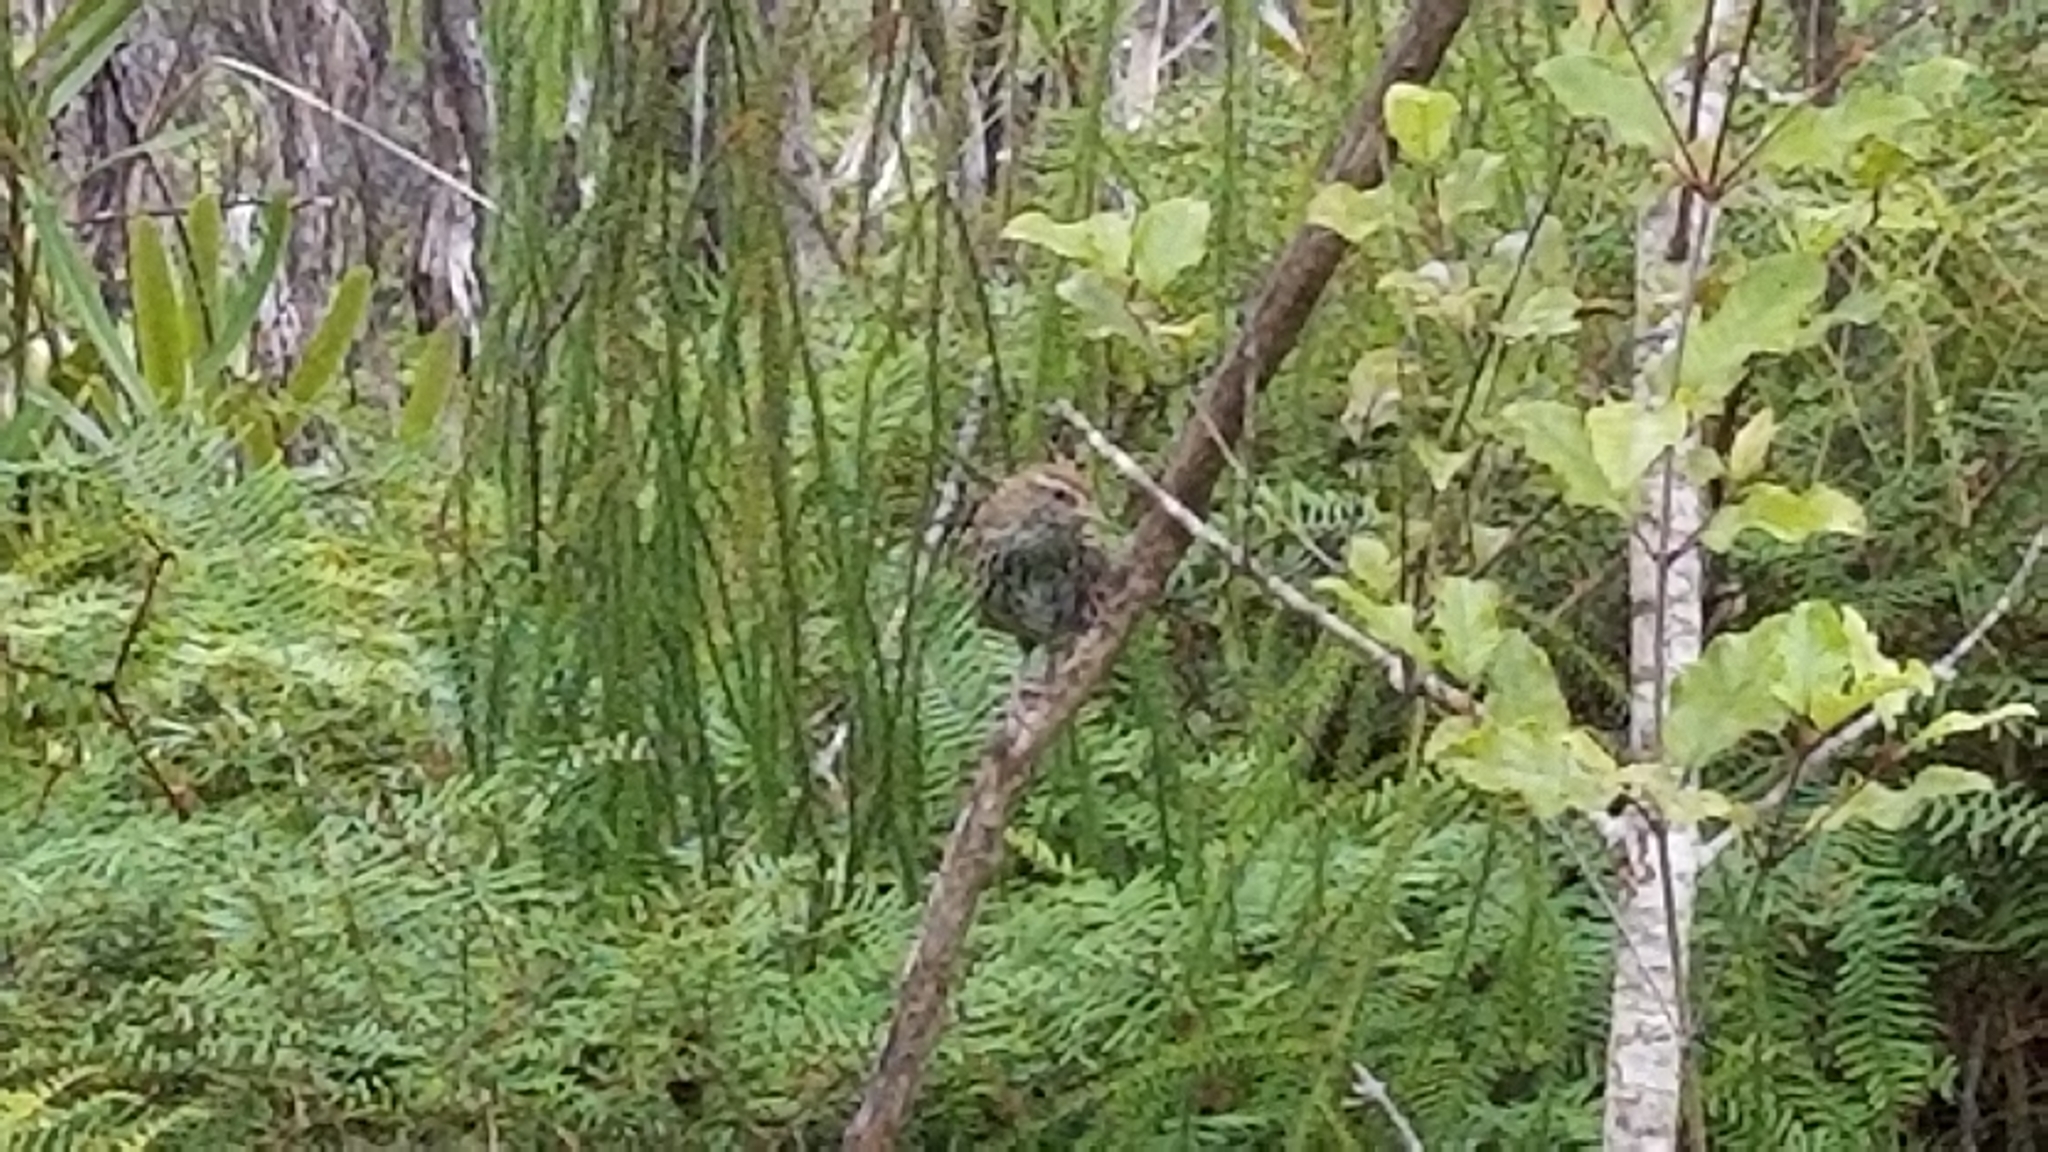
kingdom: Animalia
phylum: Chordata
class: Aves
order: Passeriformes
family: Locustellidae
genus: Poodytes
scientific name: Poodytes punctatus
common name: New zealand fernbird
